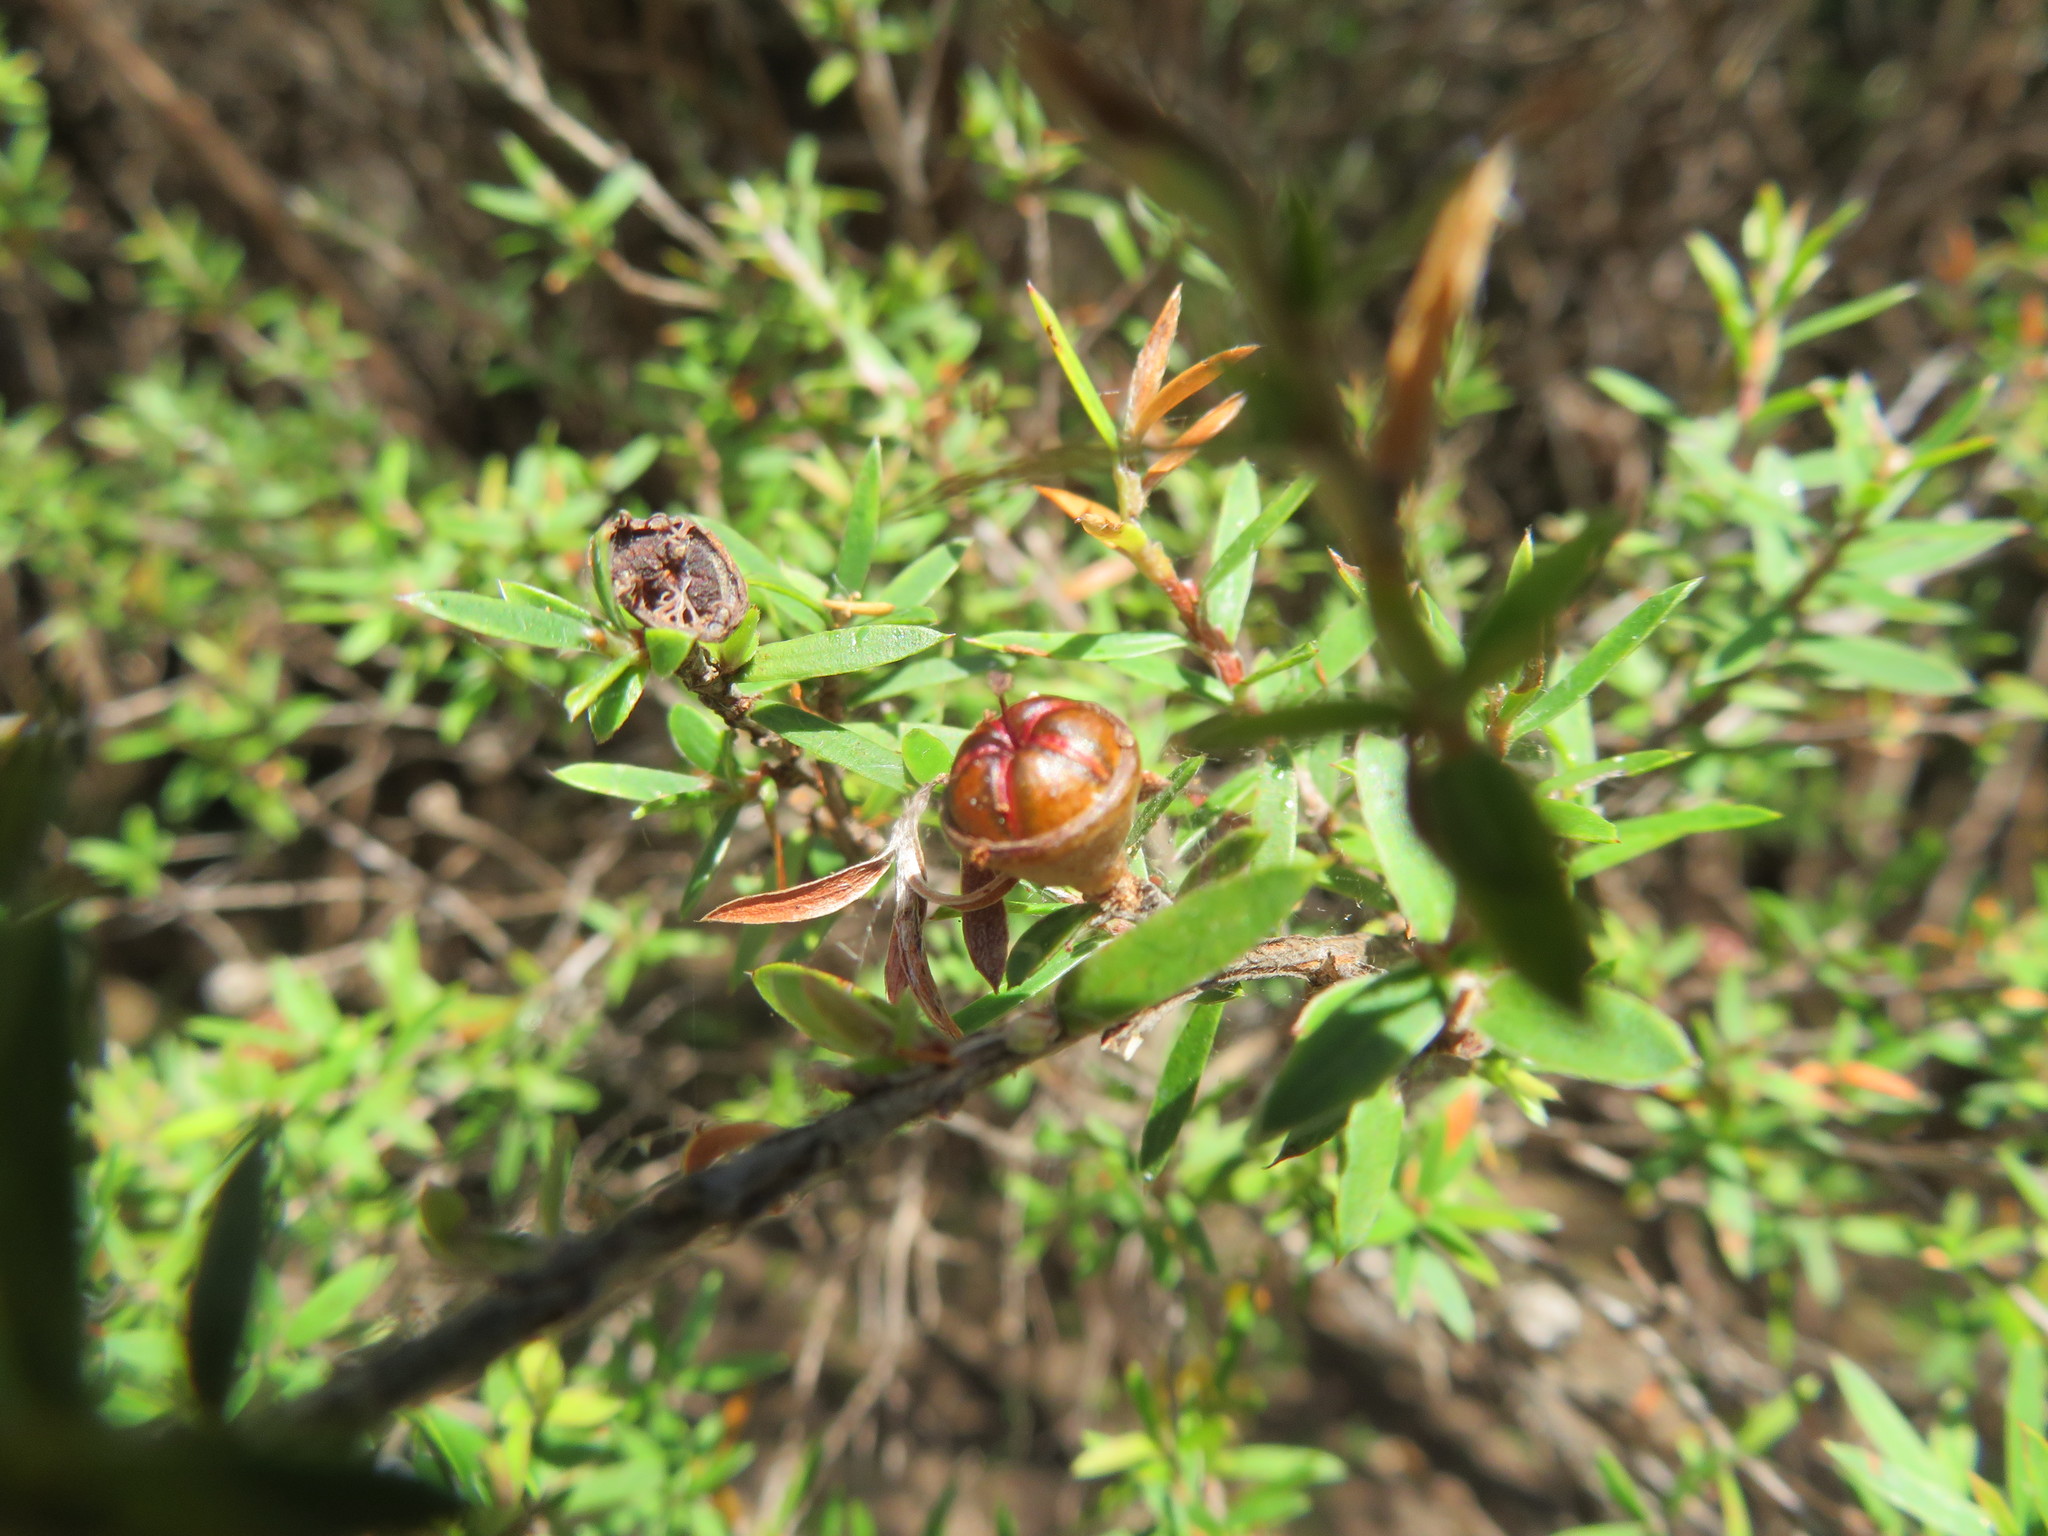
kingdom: Plantae
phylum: Tracheophyta
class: Magnoliopsida
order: Myrtales
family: Myrtaceae
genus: Leptospermum
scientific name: Leptospermum scoparium
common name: Broom tea-tree
